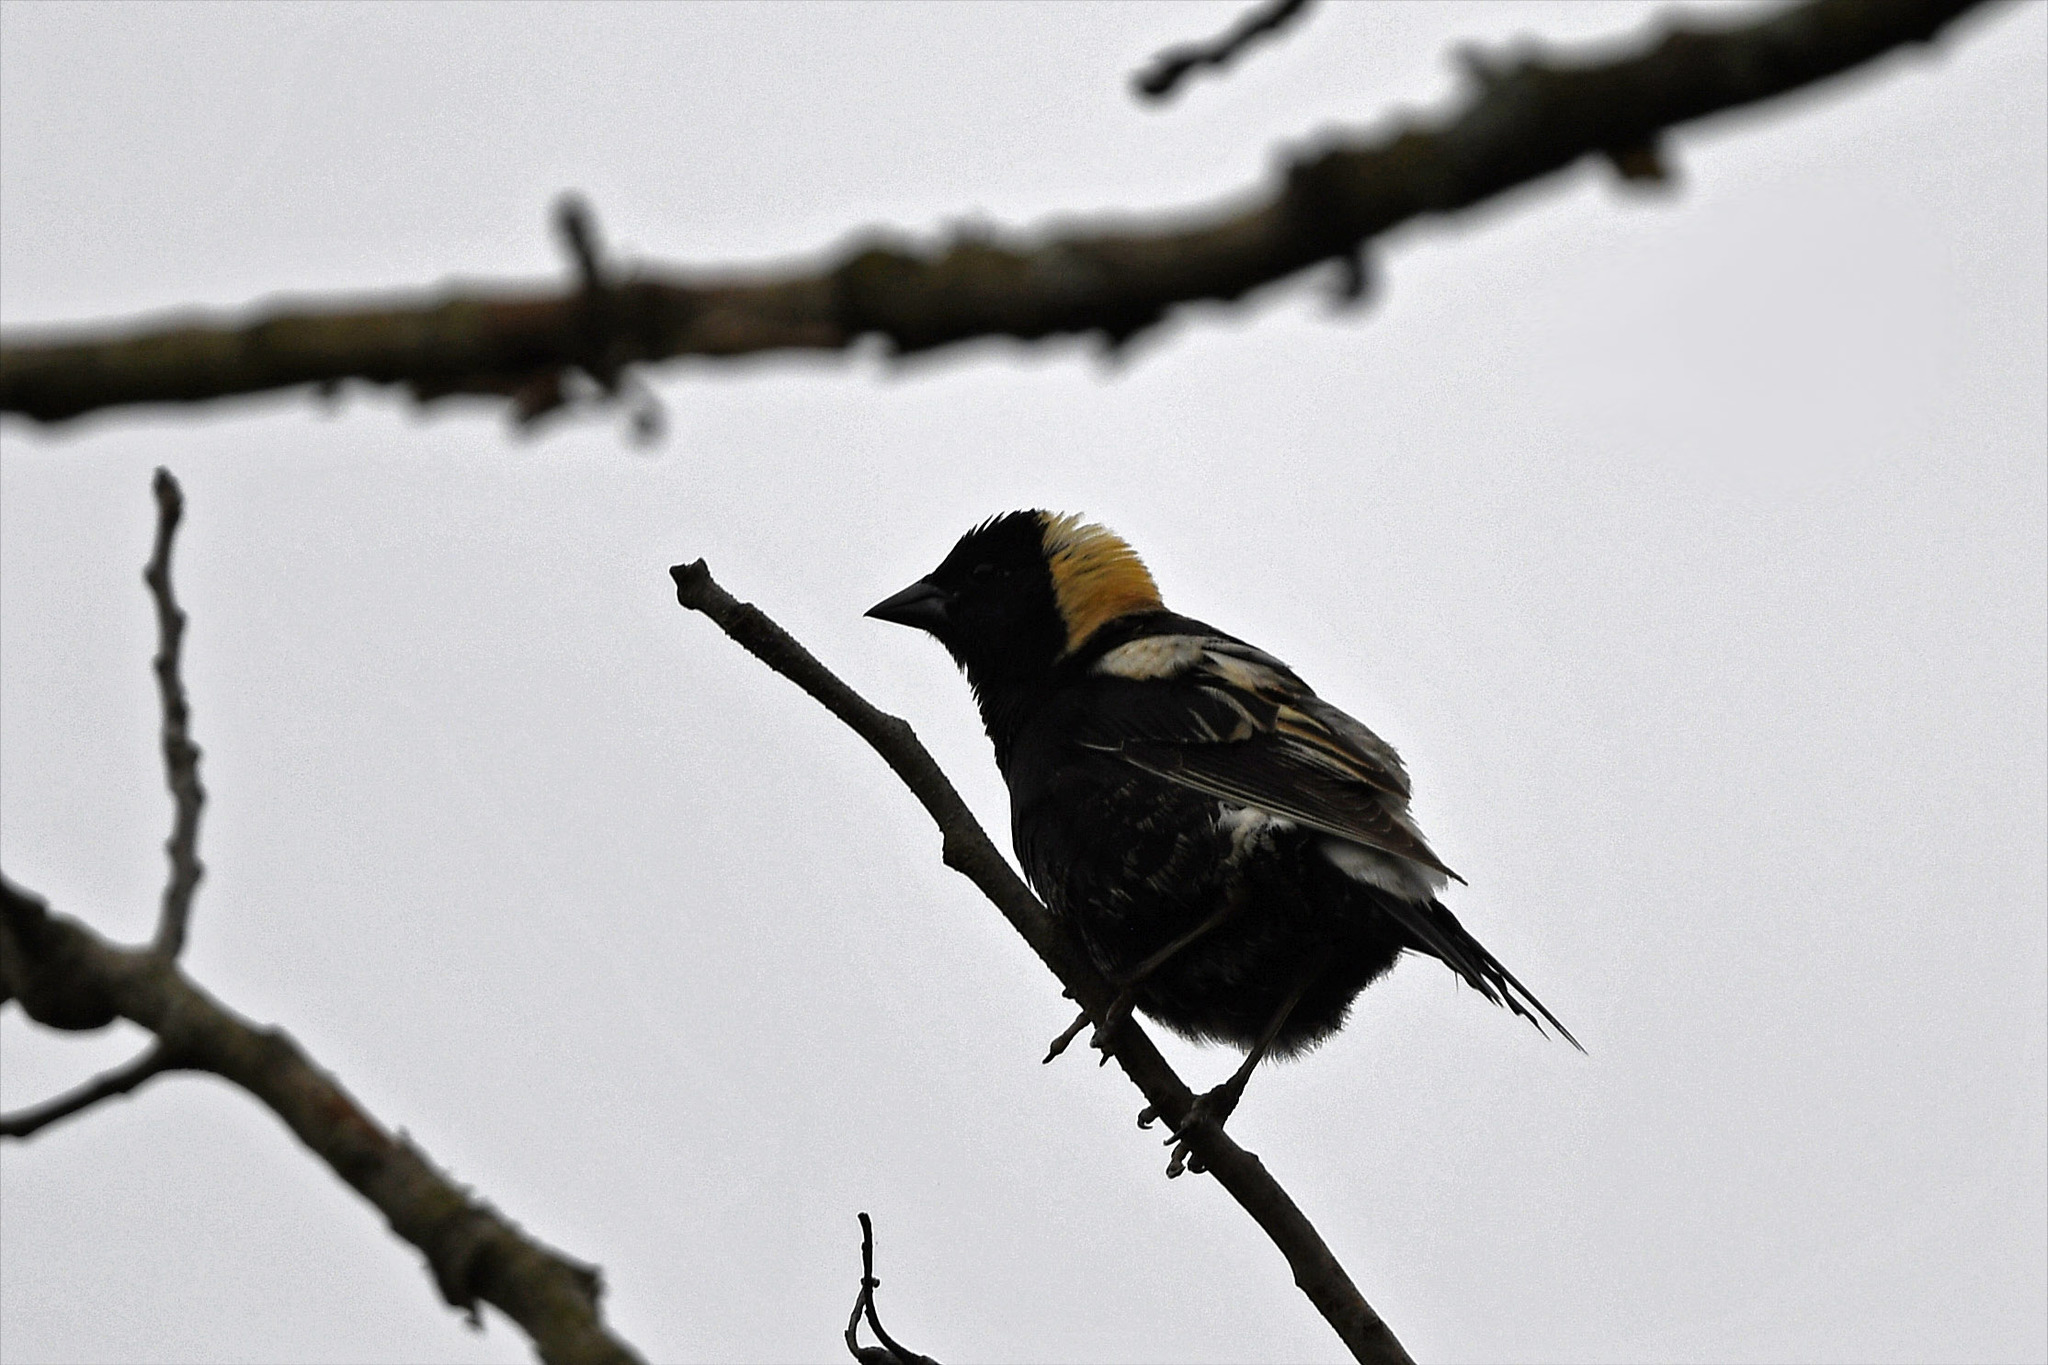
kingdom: Animalia
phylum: Chordata
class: Aves
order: Passeriformes
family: Icteridae
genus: Dolichonyx
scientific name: Dolichonyx oryzivorus
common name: Bobolink
